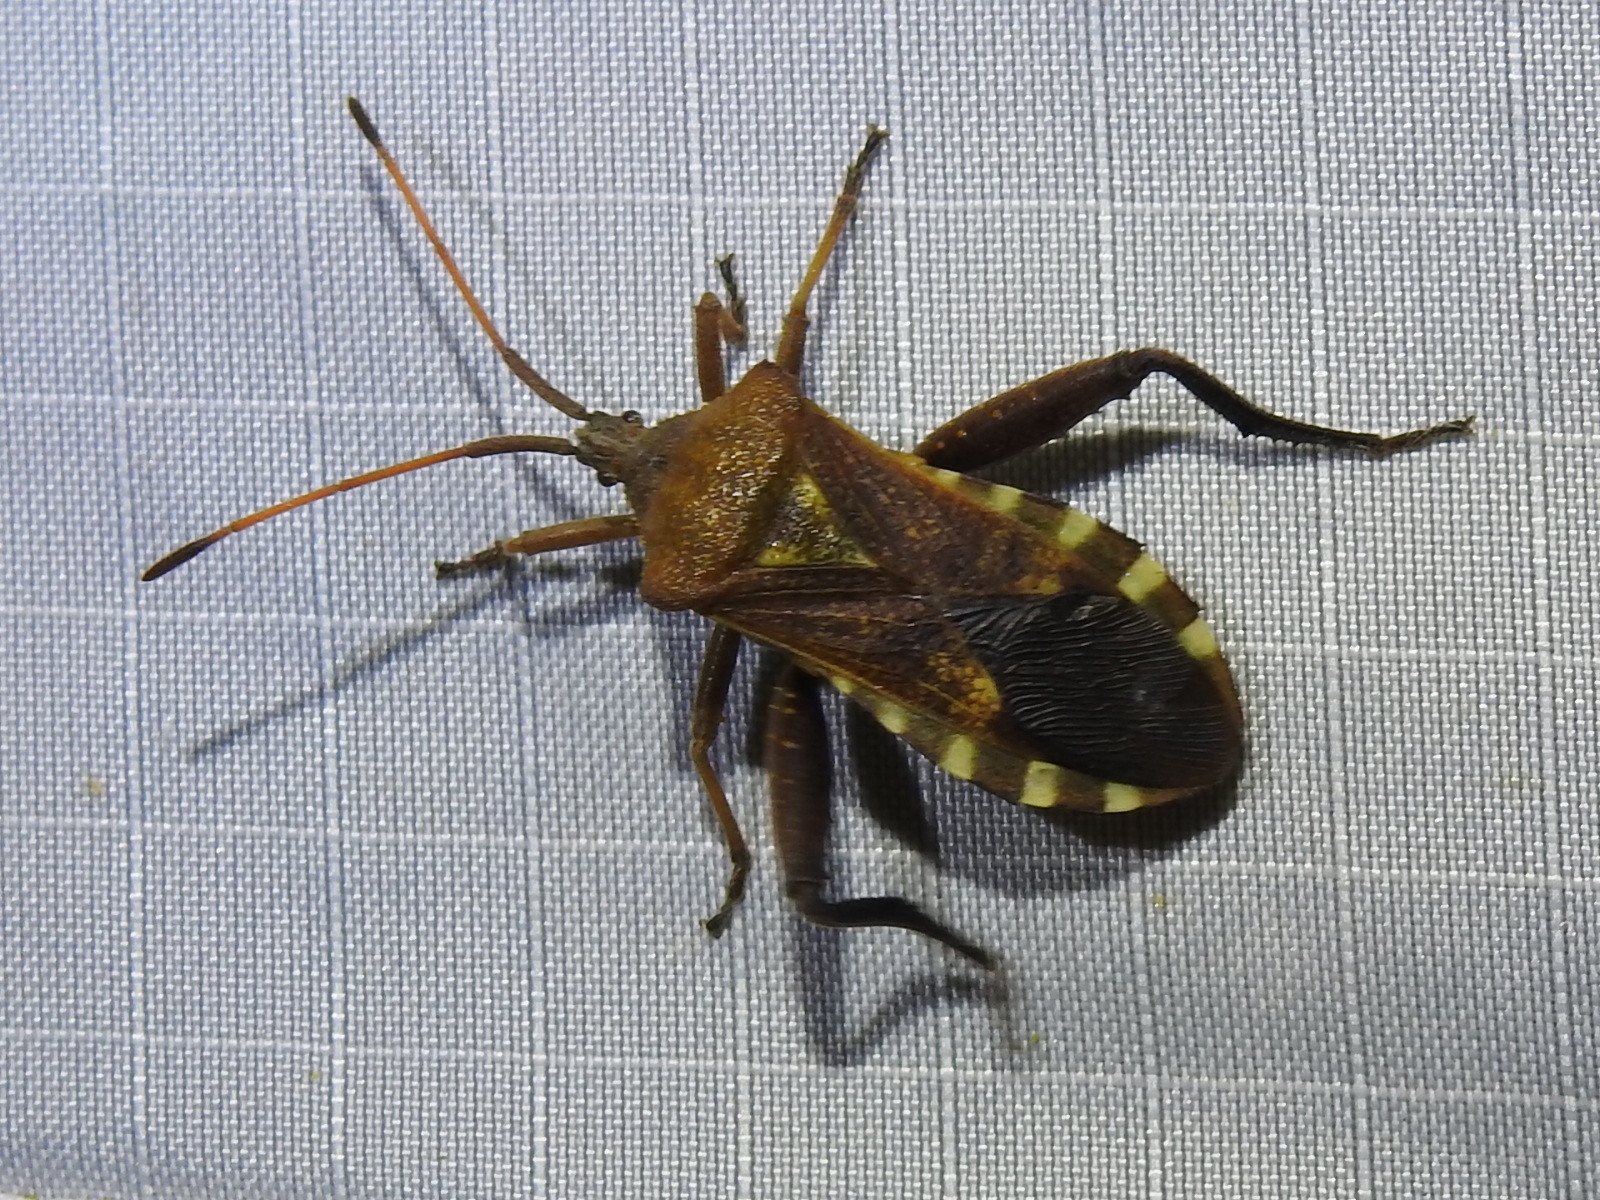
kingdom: Animalia
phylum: Arthropoda
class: Insecta
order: Hemiptera
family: Coreidae
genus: Mozena
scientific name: Mozena obtusa
